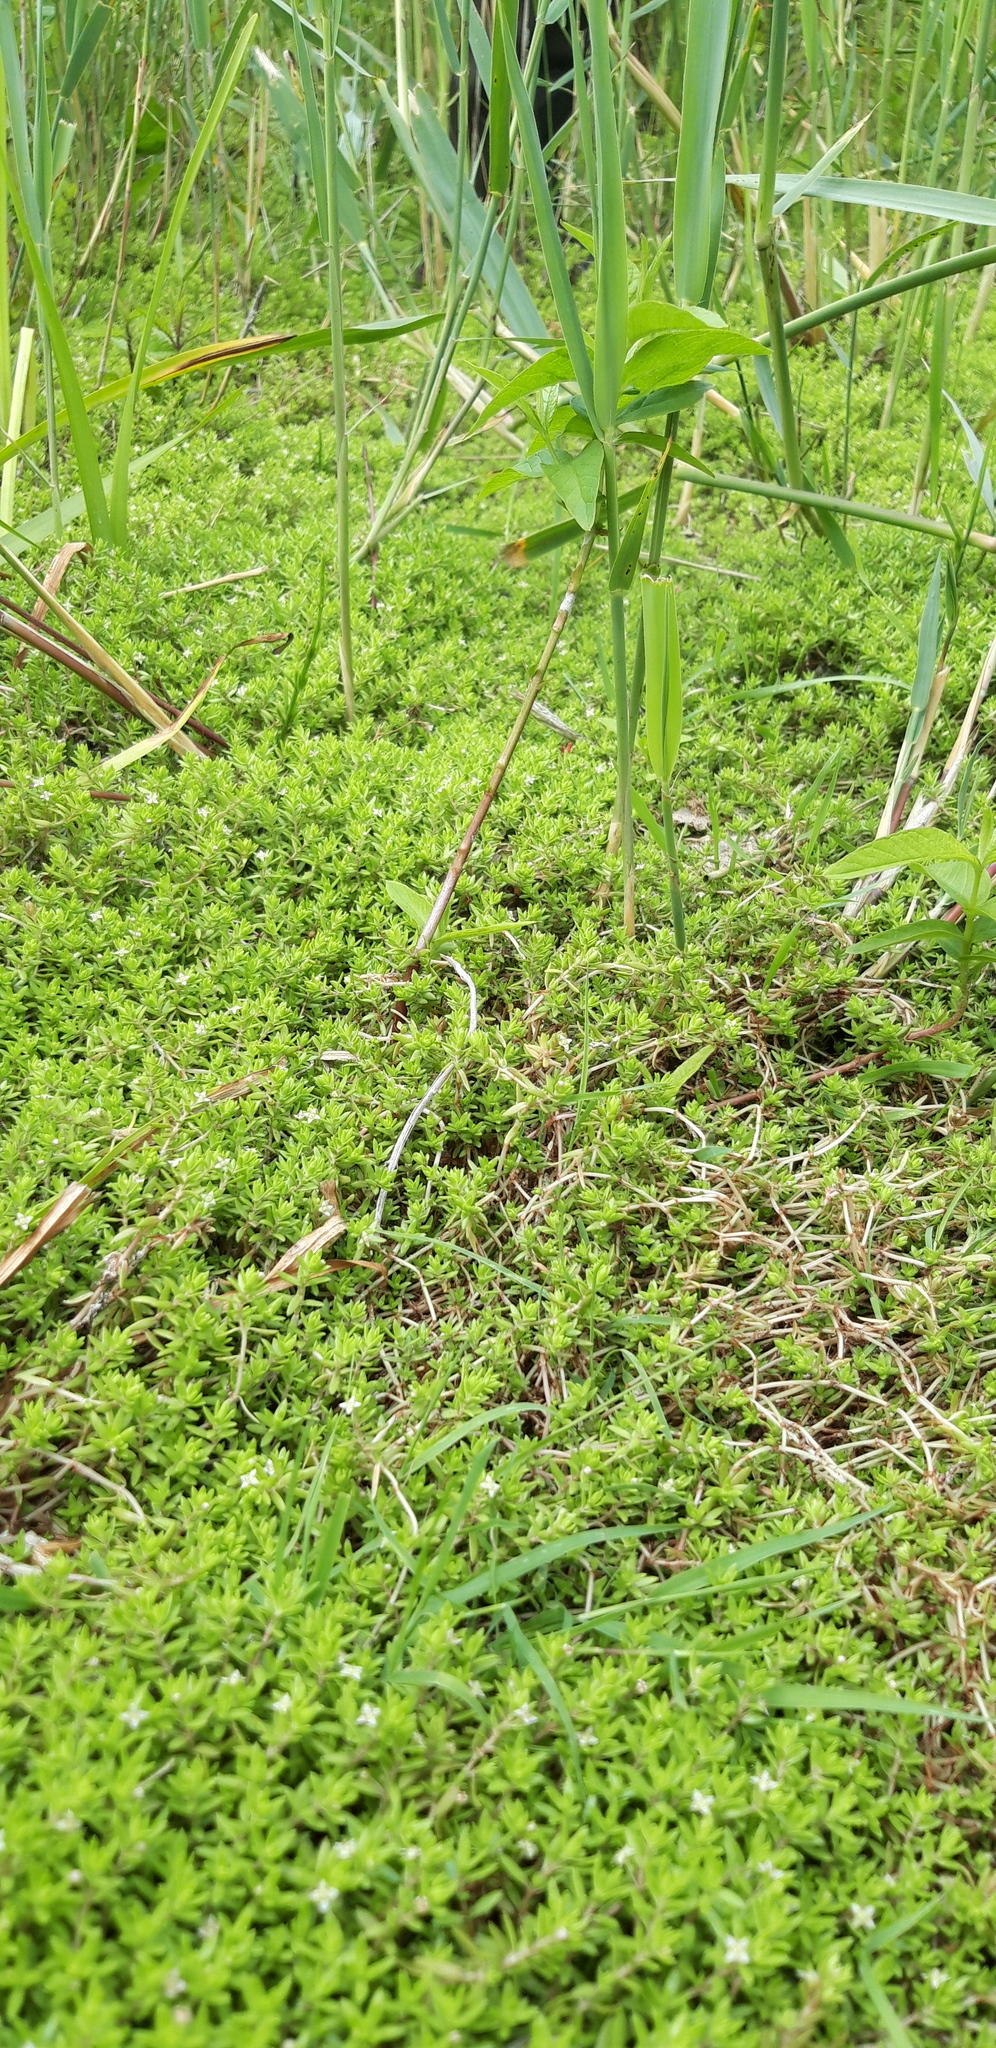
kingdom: Plantae
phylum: Tracheophyta
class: Magnoliopsida
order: Saxifragales
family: Crassulaceae
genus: Crassula
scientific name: Crassula helmsii
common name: New zealand pigmyweed
